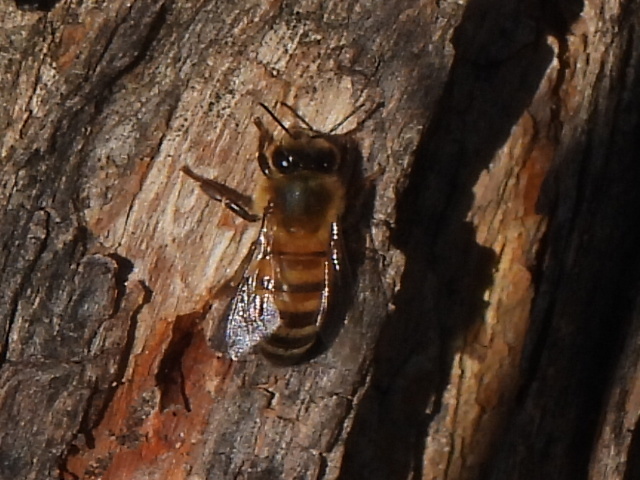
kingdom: Animalia
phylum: Arthropoda
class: Insecta
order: Hymenoptera
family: Apidae
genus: Apis
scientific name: Apis mellifera
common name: Honey bee
